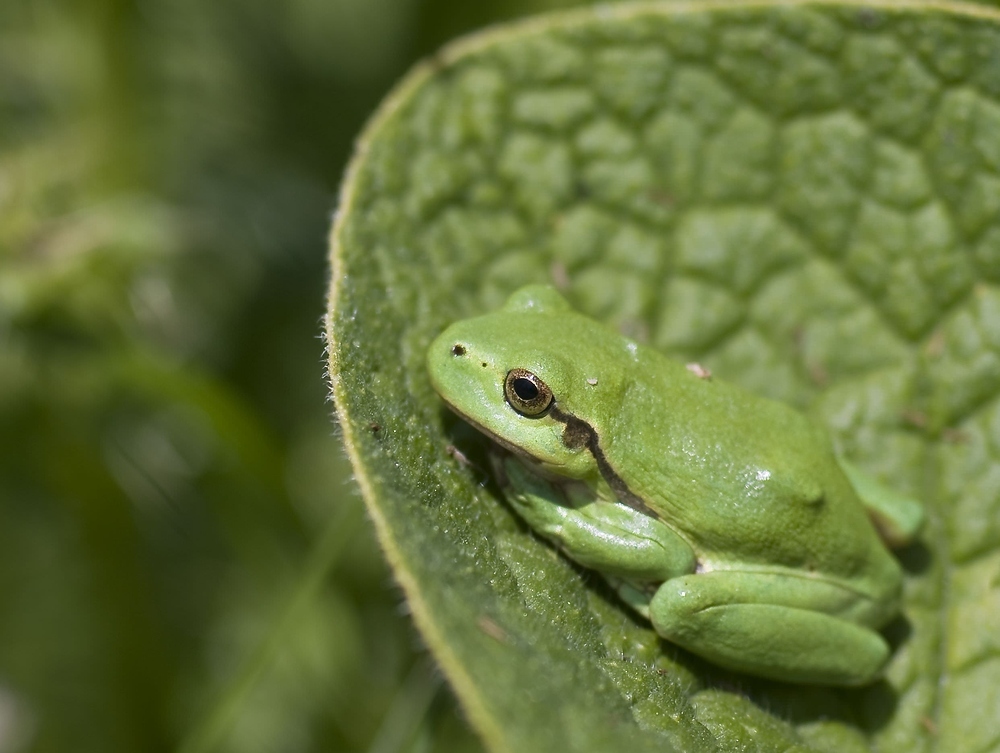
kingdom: Animalia
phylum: Chordata
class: Amphibia
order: Anura
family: Hylidae
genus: Hyla
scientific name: Hyla arborea
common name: Common tree frog
